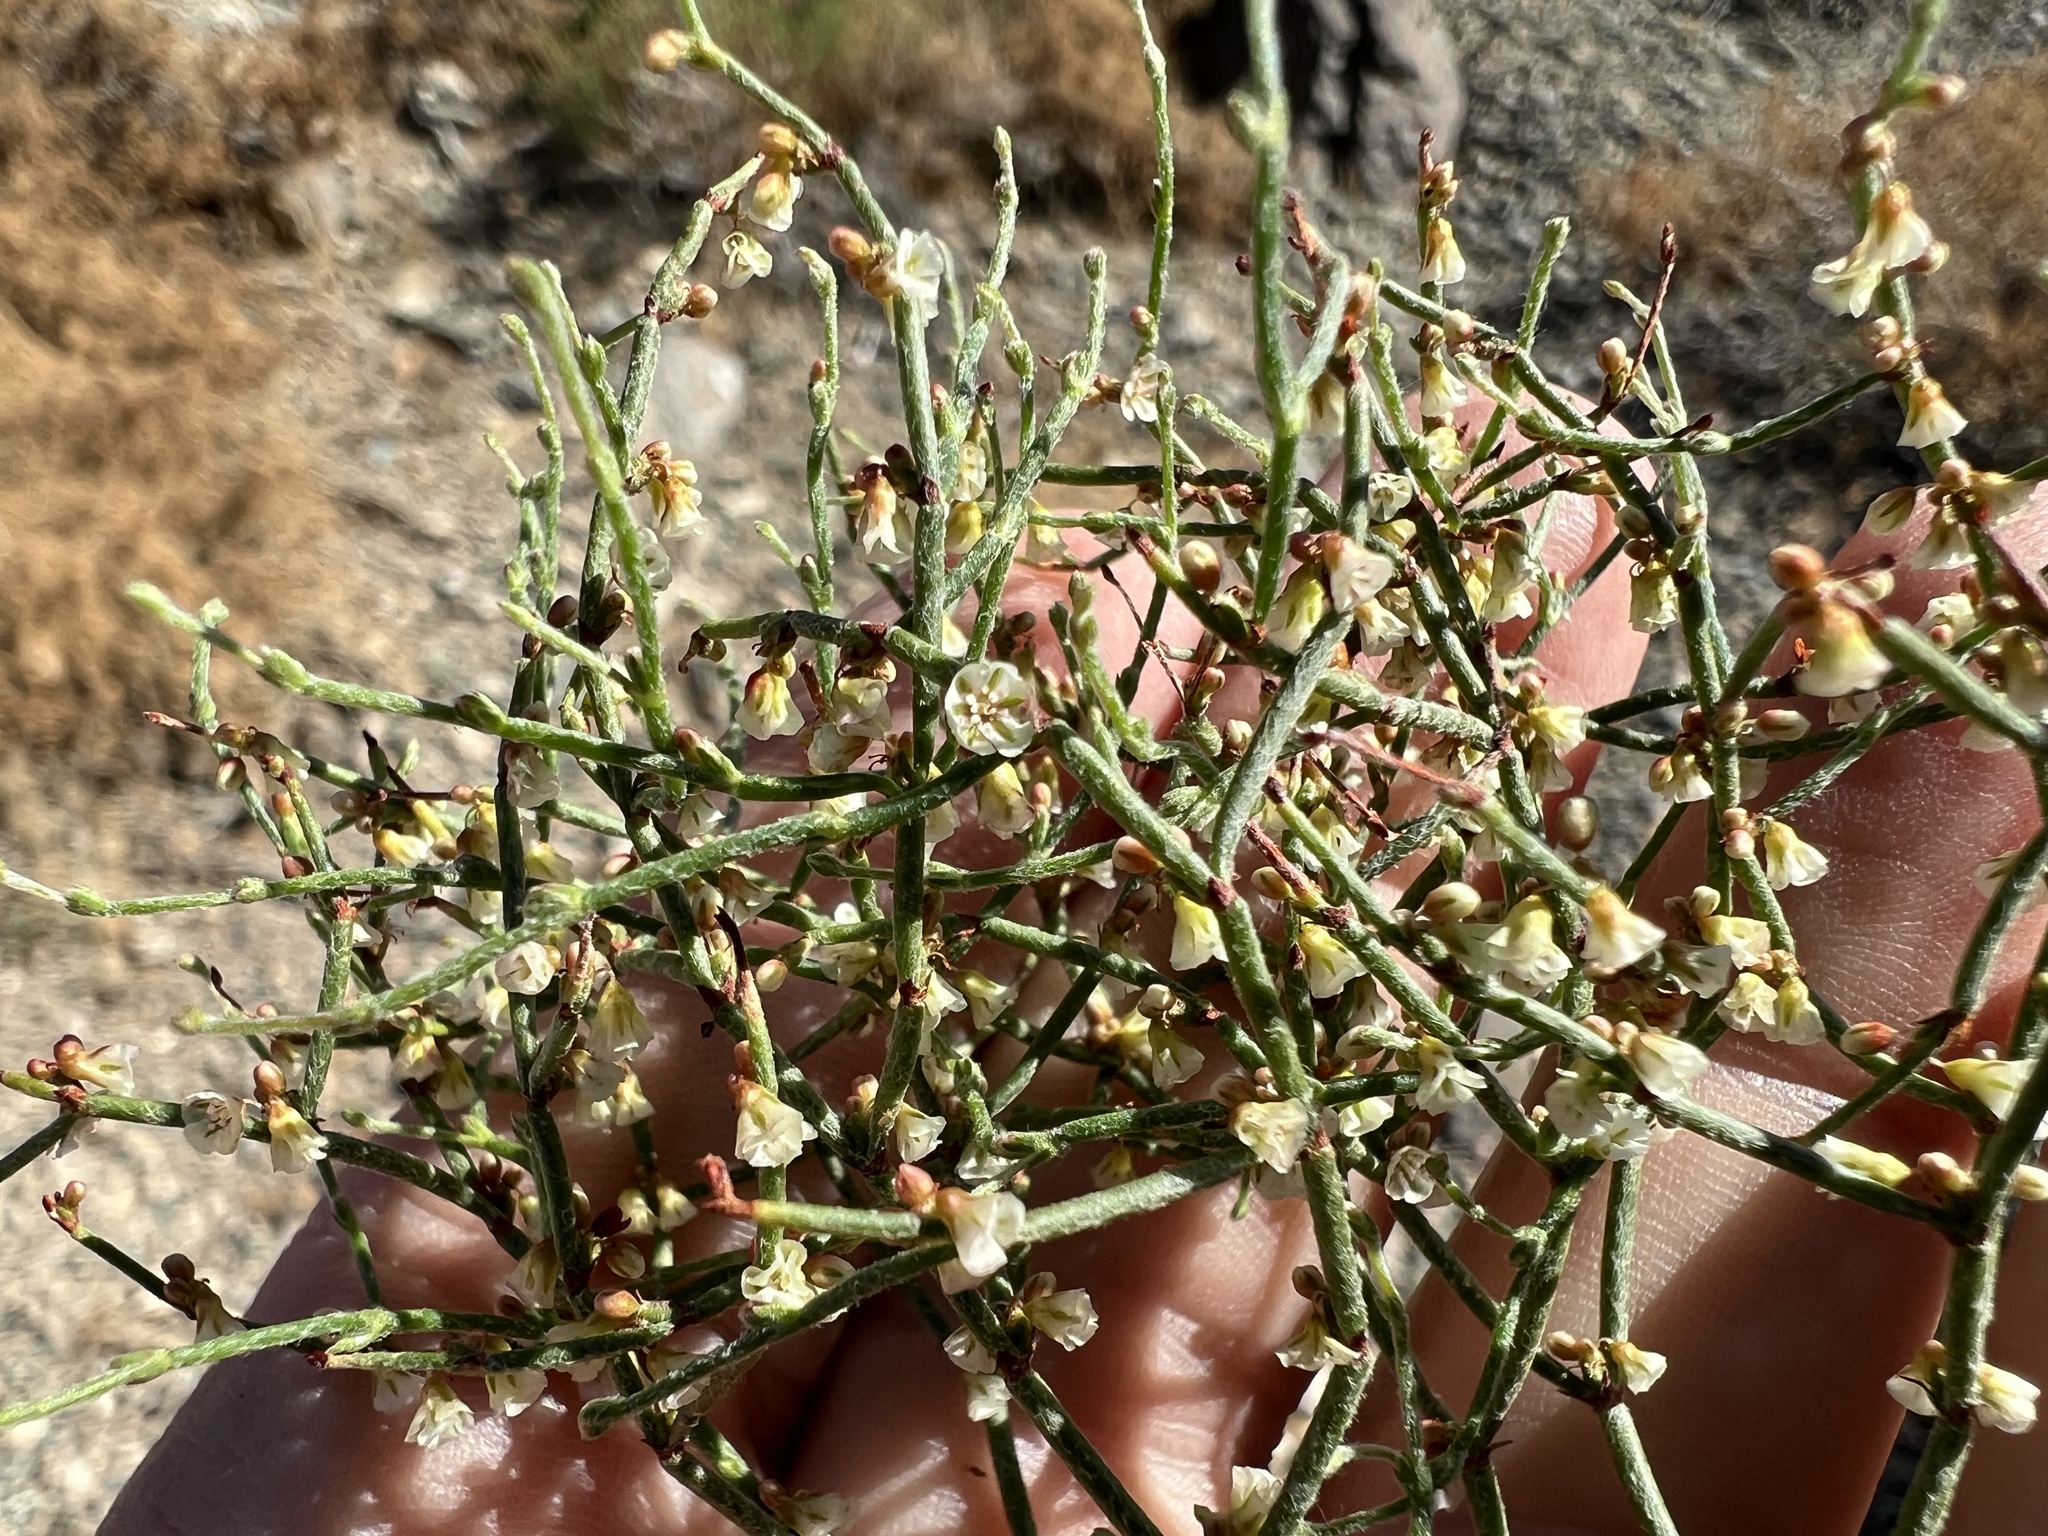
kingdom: Plantae
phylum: Tracheophyta
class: Magnoliopsida
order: Caryophyllales
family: Polygonaceae
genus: Eriogonum
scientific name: Eriogonum nidularium
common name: Bird's-nest wild buckwheat
